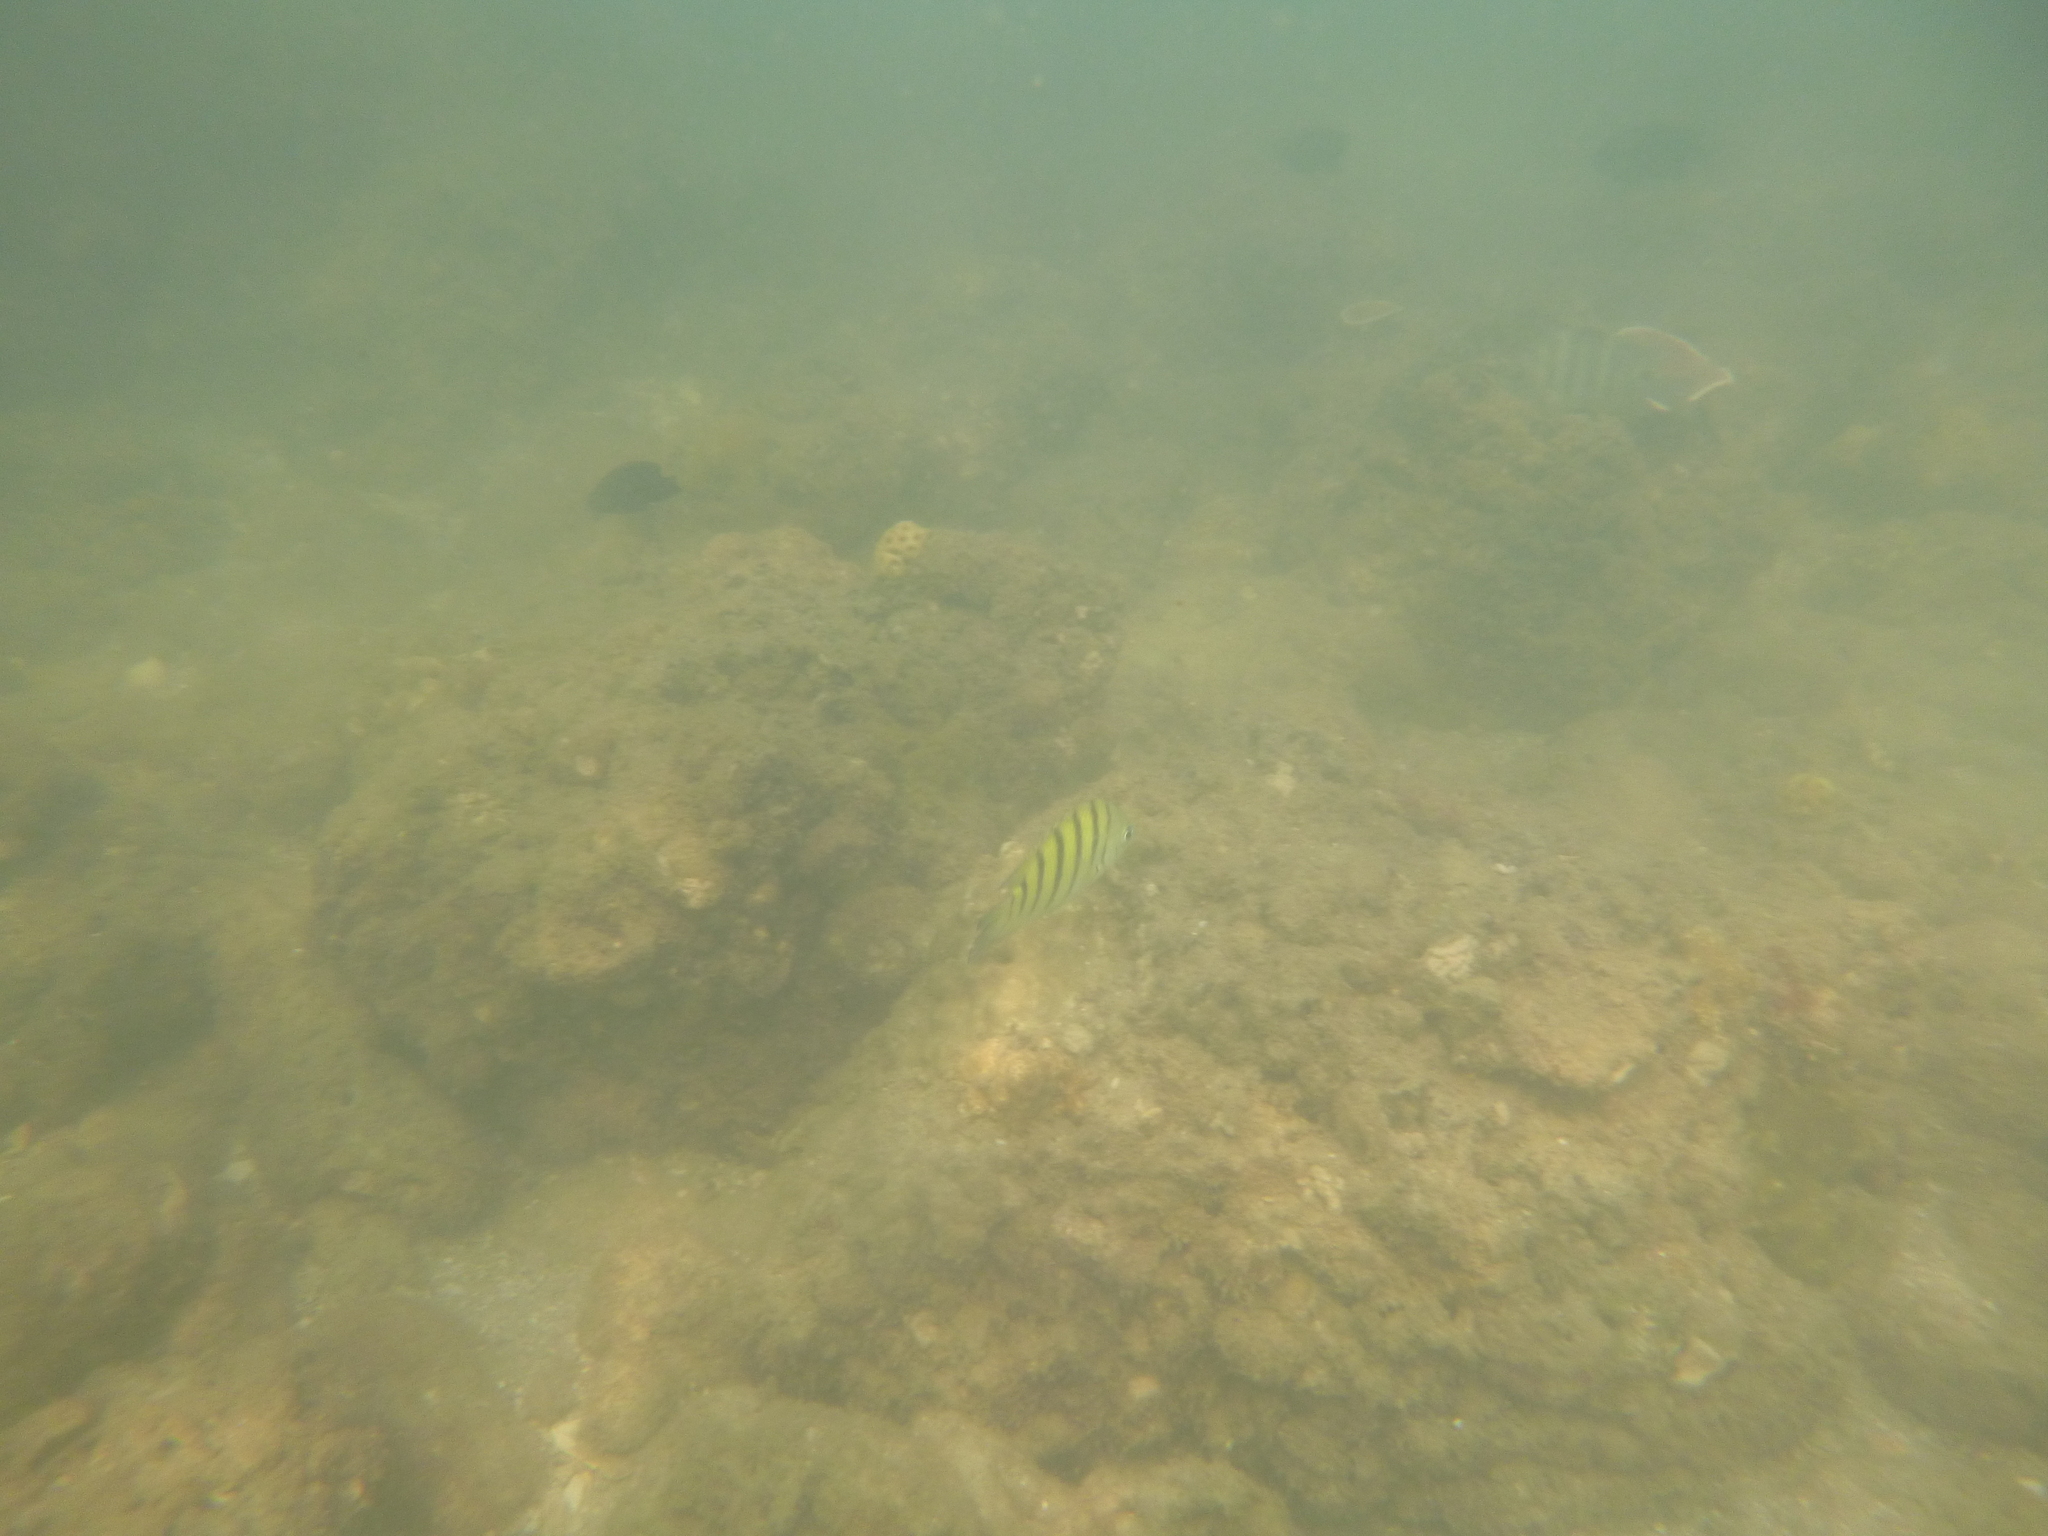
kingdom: Animalia
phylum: Chordata
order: Perciformes
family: Pomacentridae
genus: Abudefduf
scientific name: Abudefduf bengalensis
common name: Bengal sergeant
